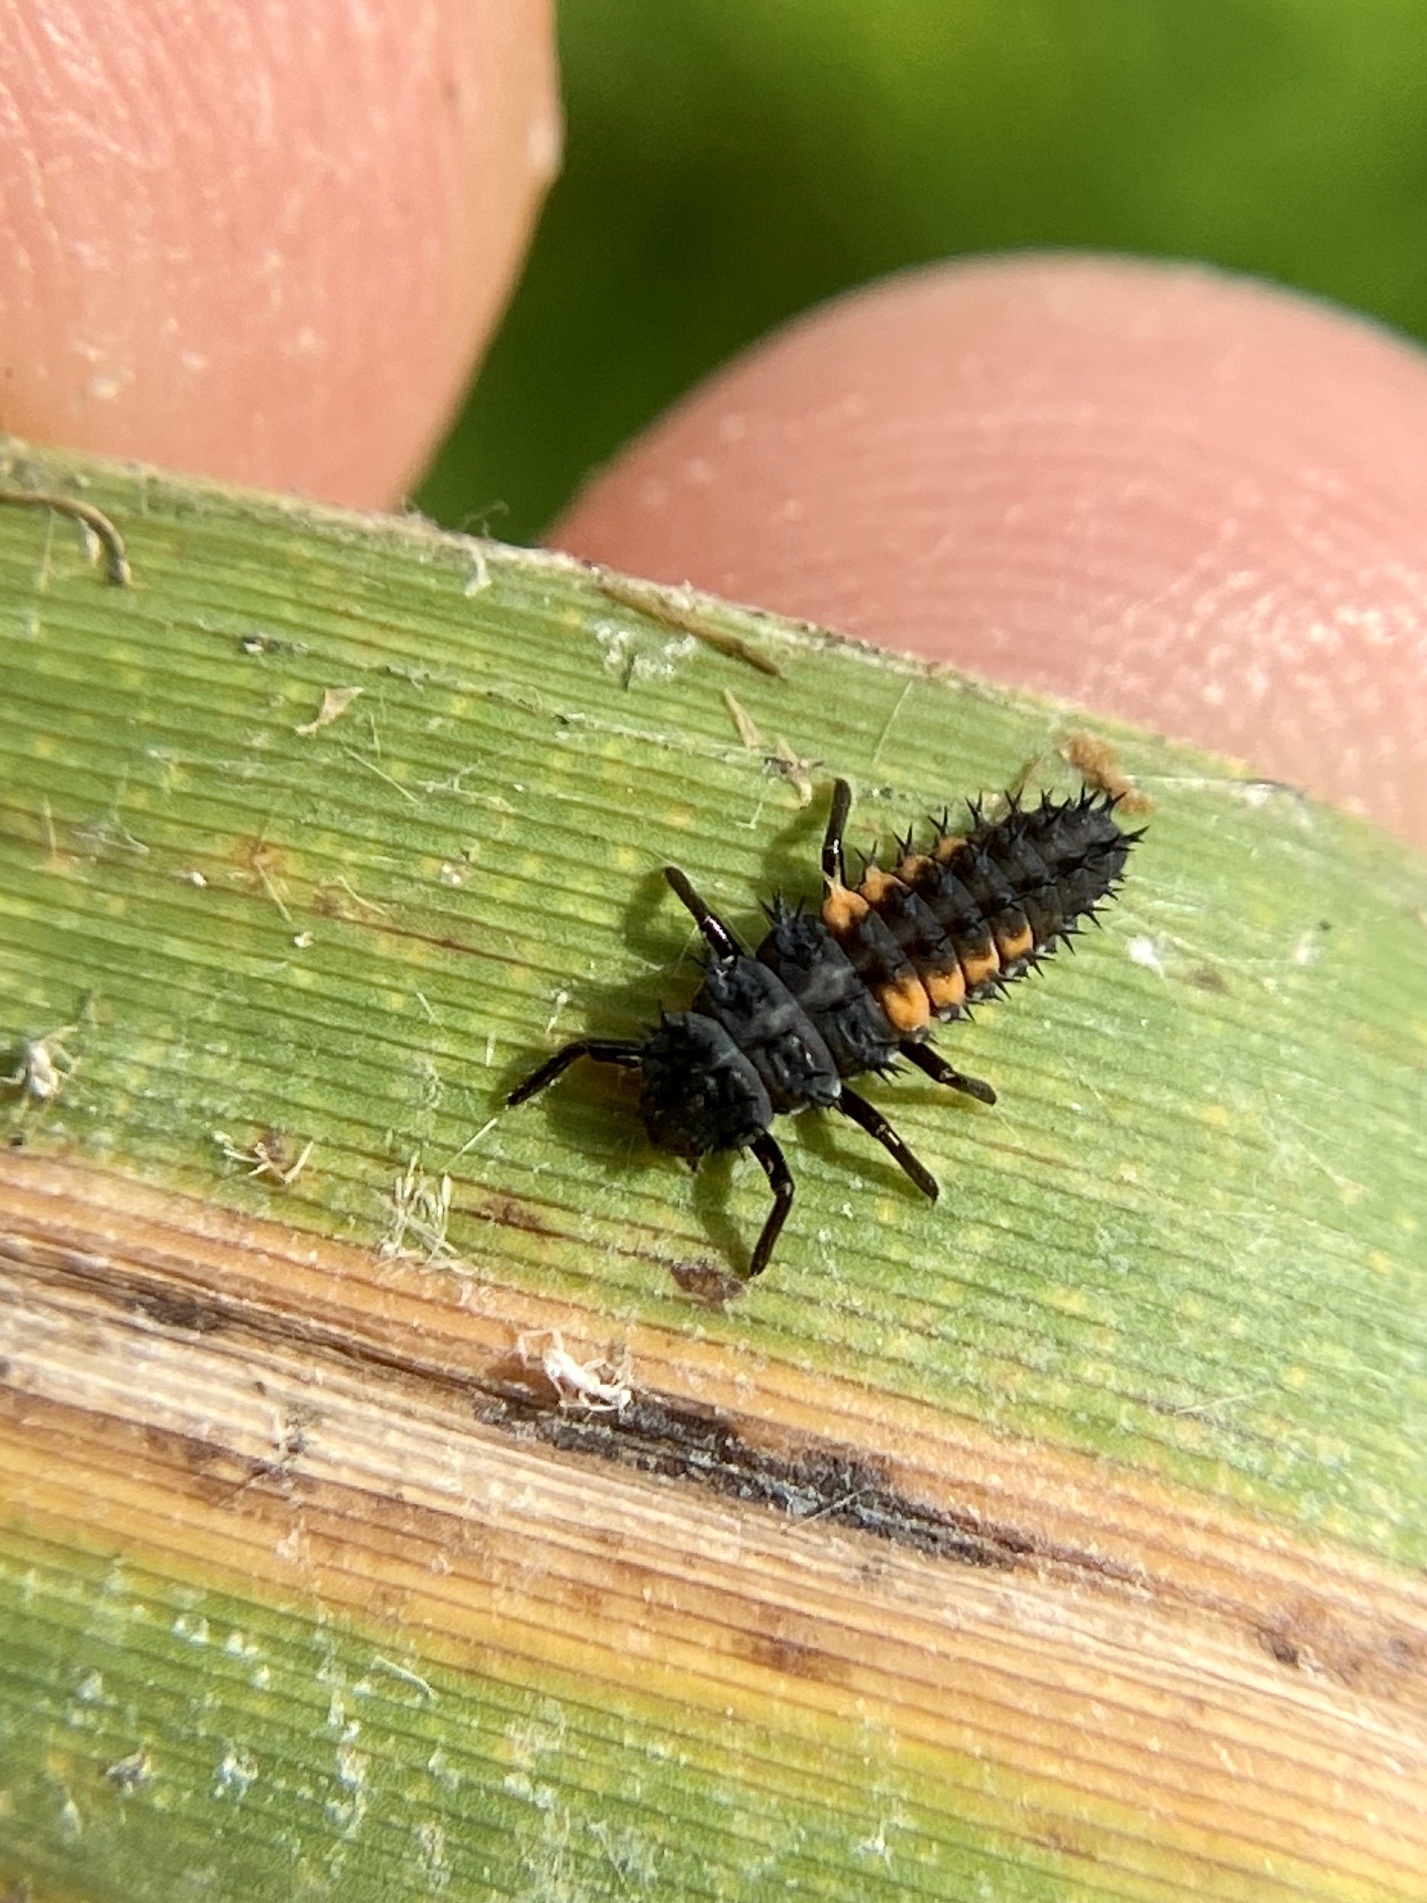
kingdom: Animalia
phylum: Arthropoda
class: Insecta
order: Coleoptera
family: Coccinellidae
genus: Harmonia
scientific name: Harmonia axyridis
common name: Harlequin ladybird
